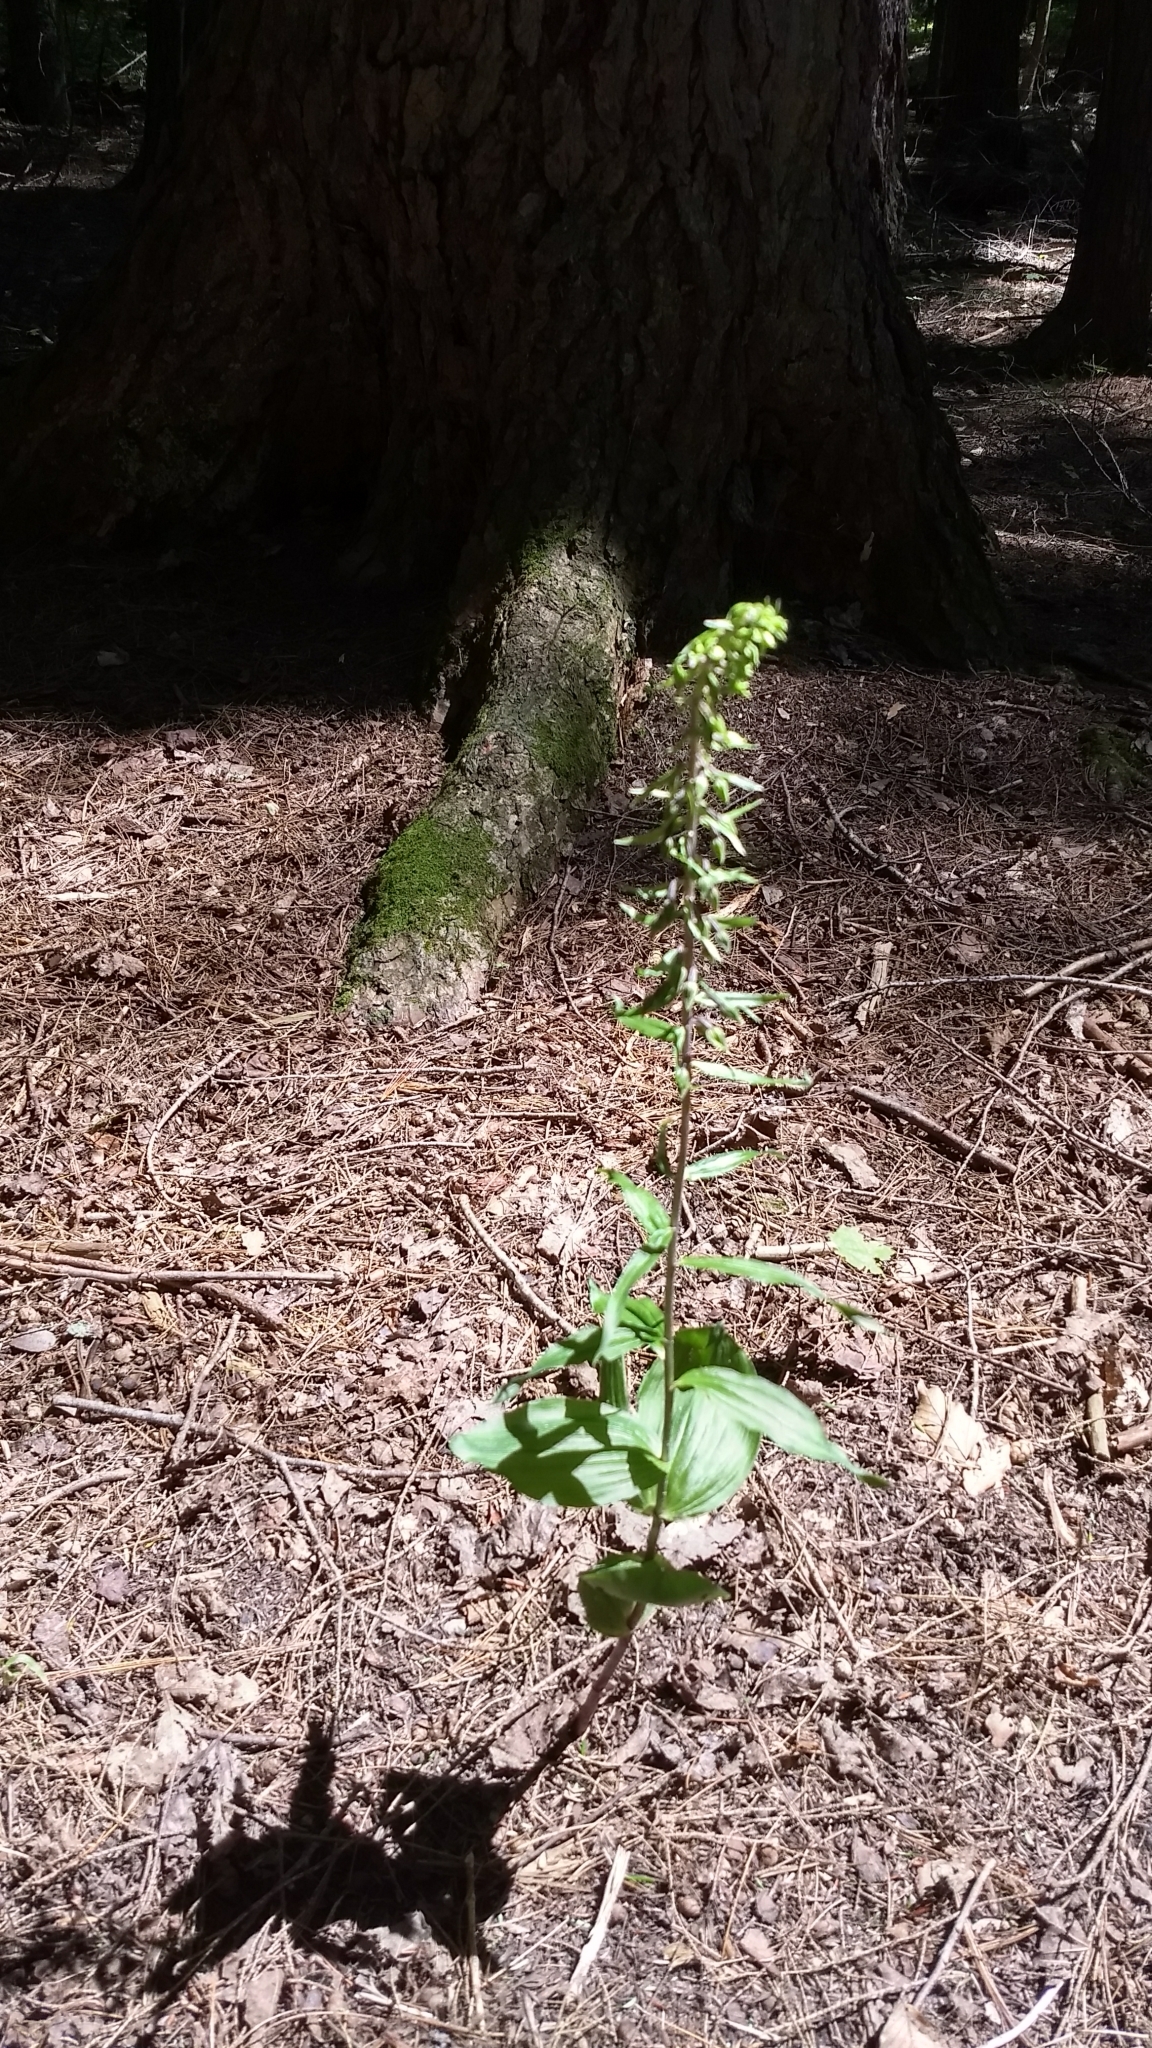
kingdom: Plantae
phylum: Tracheophyta
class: Liliopsida
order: Asparagales
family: Orchidaceae
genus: Epipactis
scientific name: Epipactis helleborine
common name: Broad-leaved helleborine
